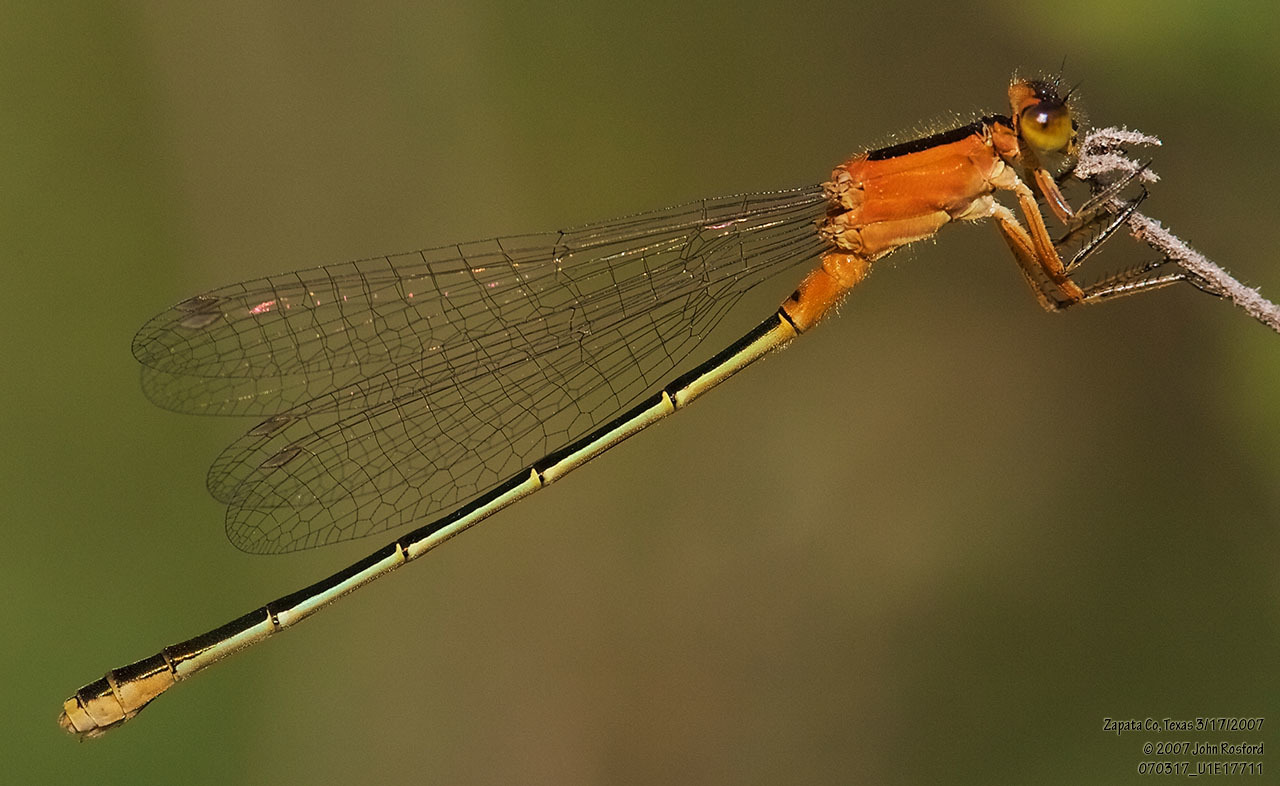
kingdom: Animalia
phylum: Arthropoda
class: Insecta
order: Odonata
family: Coenagrionidae
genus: Ischnura
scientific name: Ischnura ramburii
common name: Rambur's forktail
